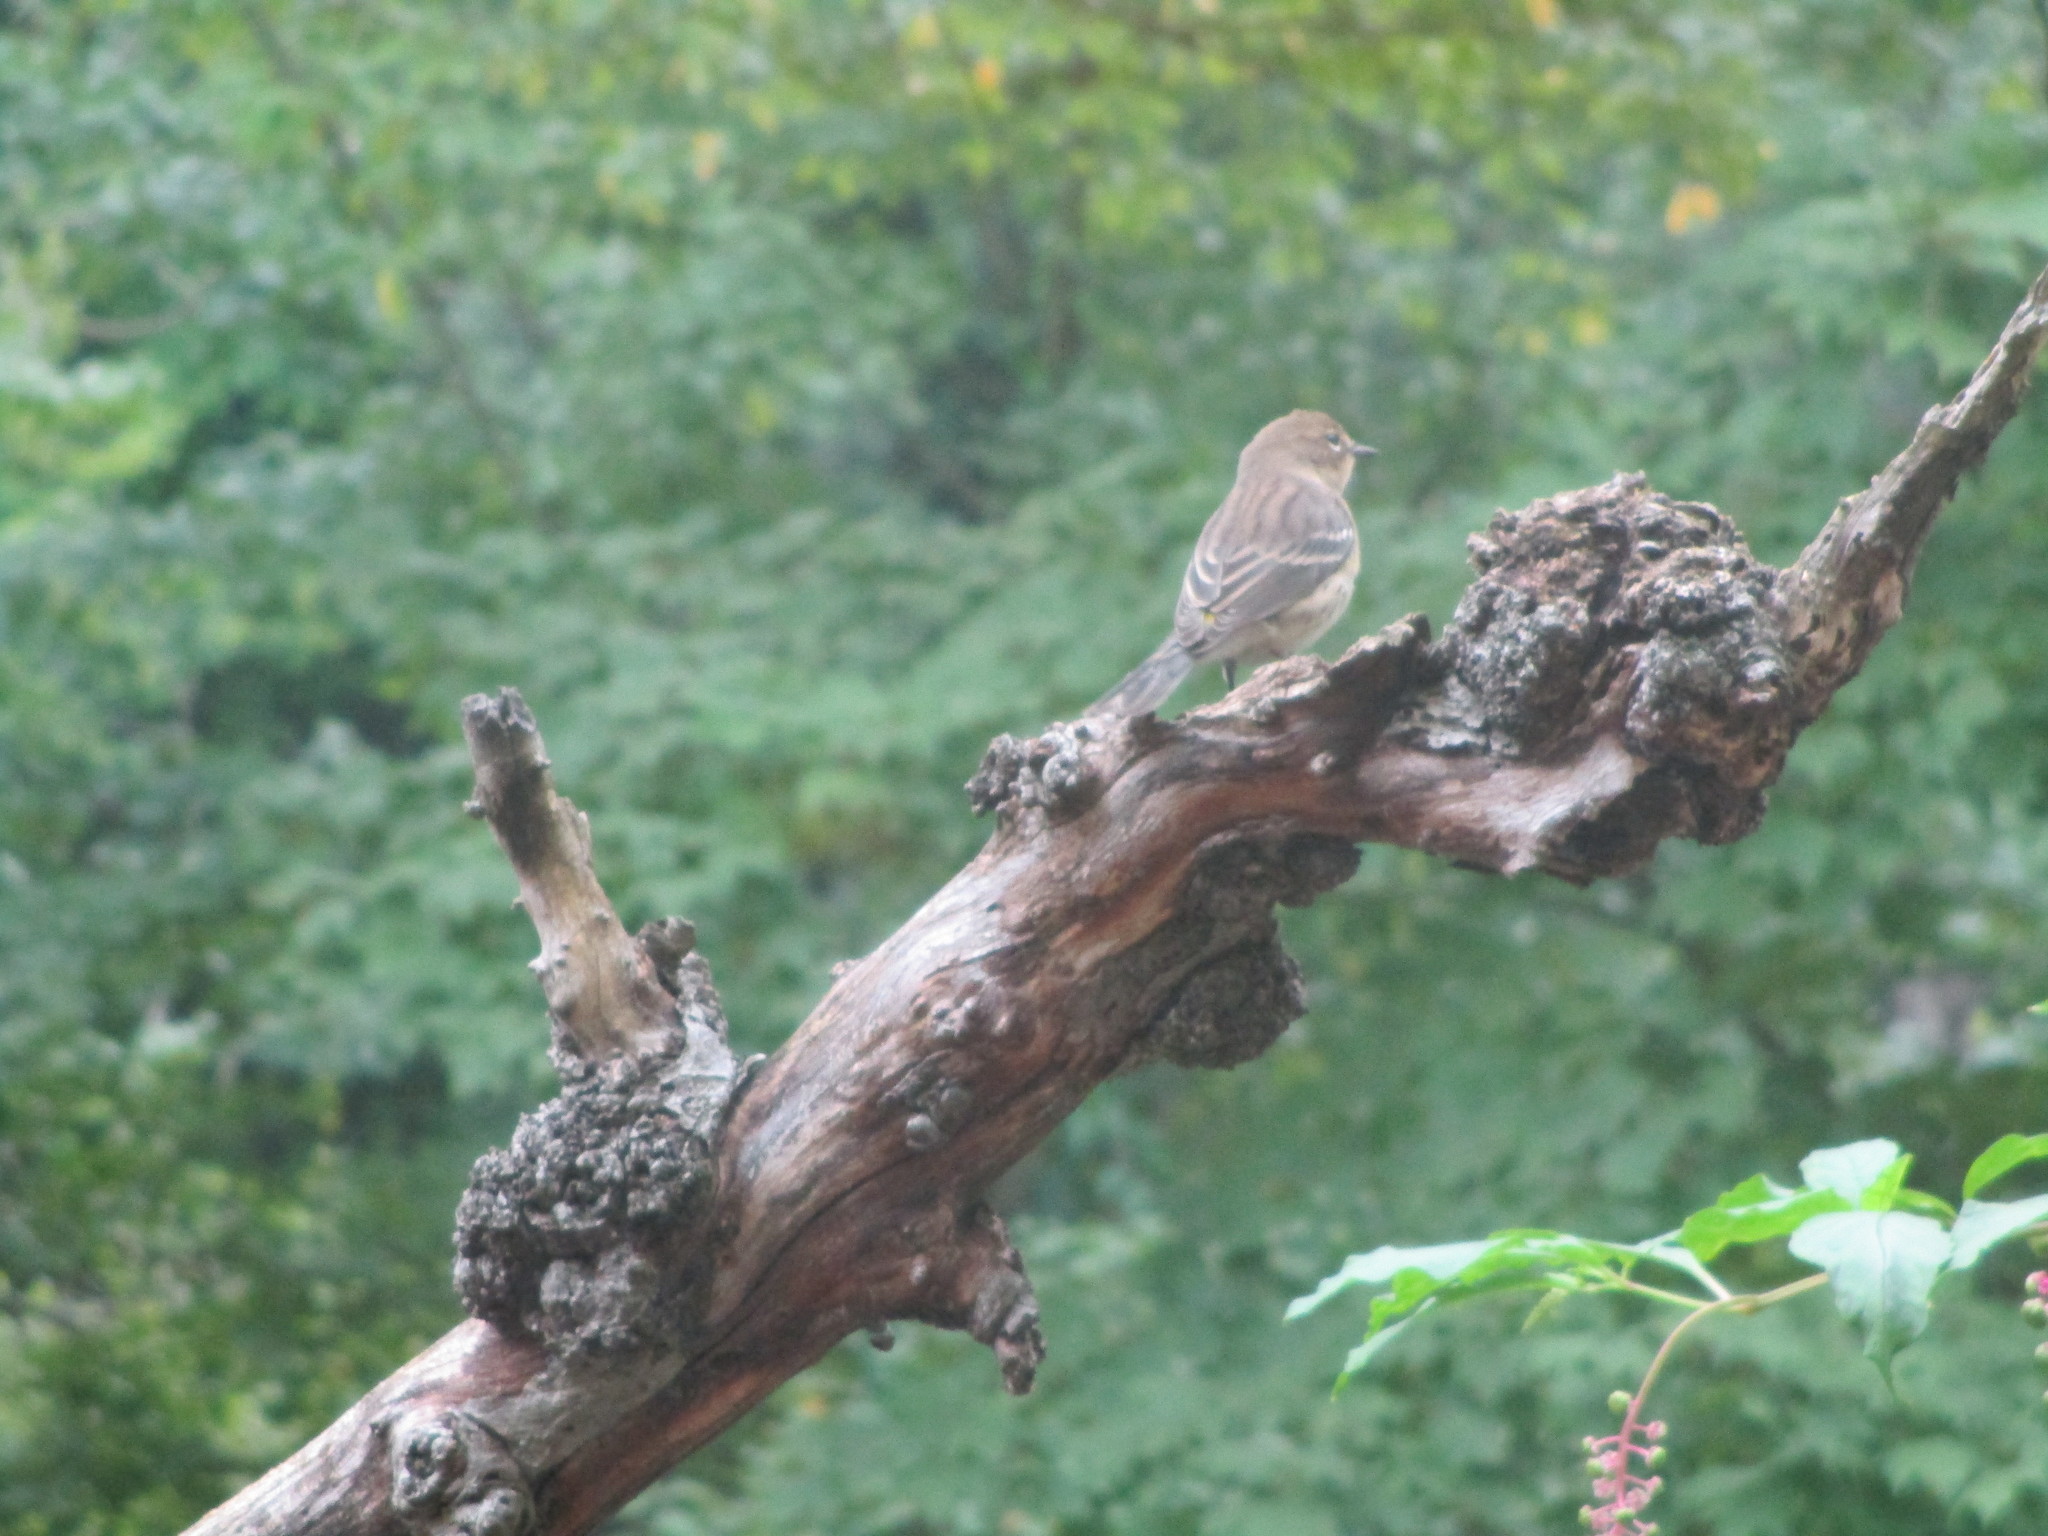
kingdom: Animalia
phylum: Chordata
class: Aves
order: Passeriformes
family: Parulidae
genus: Setophaga
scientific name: Setophaga coronata
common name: Myrtle warbler
